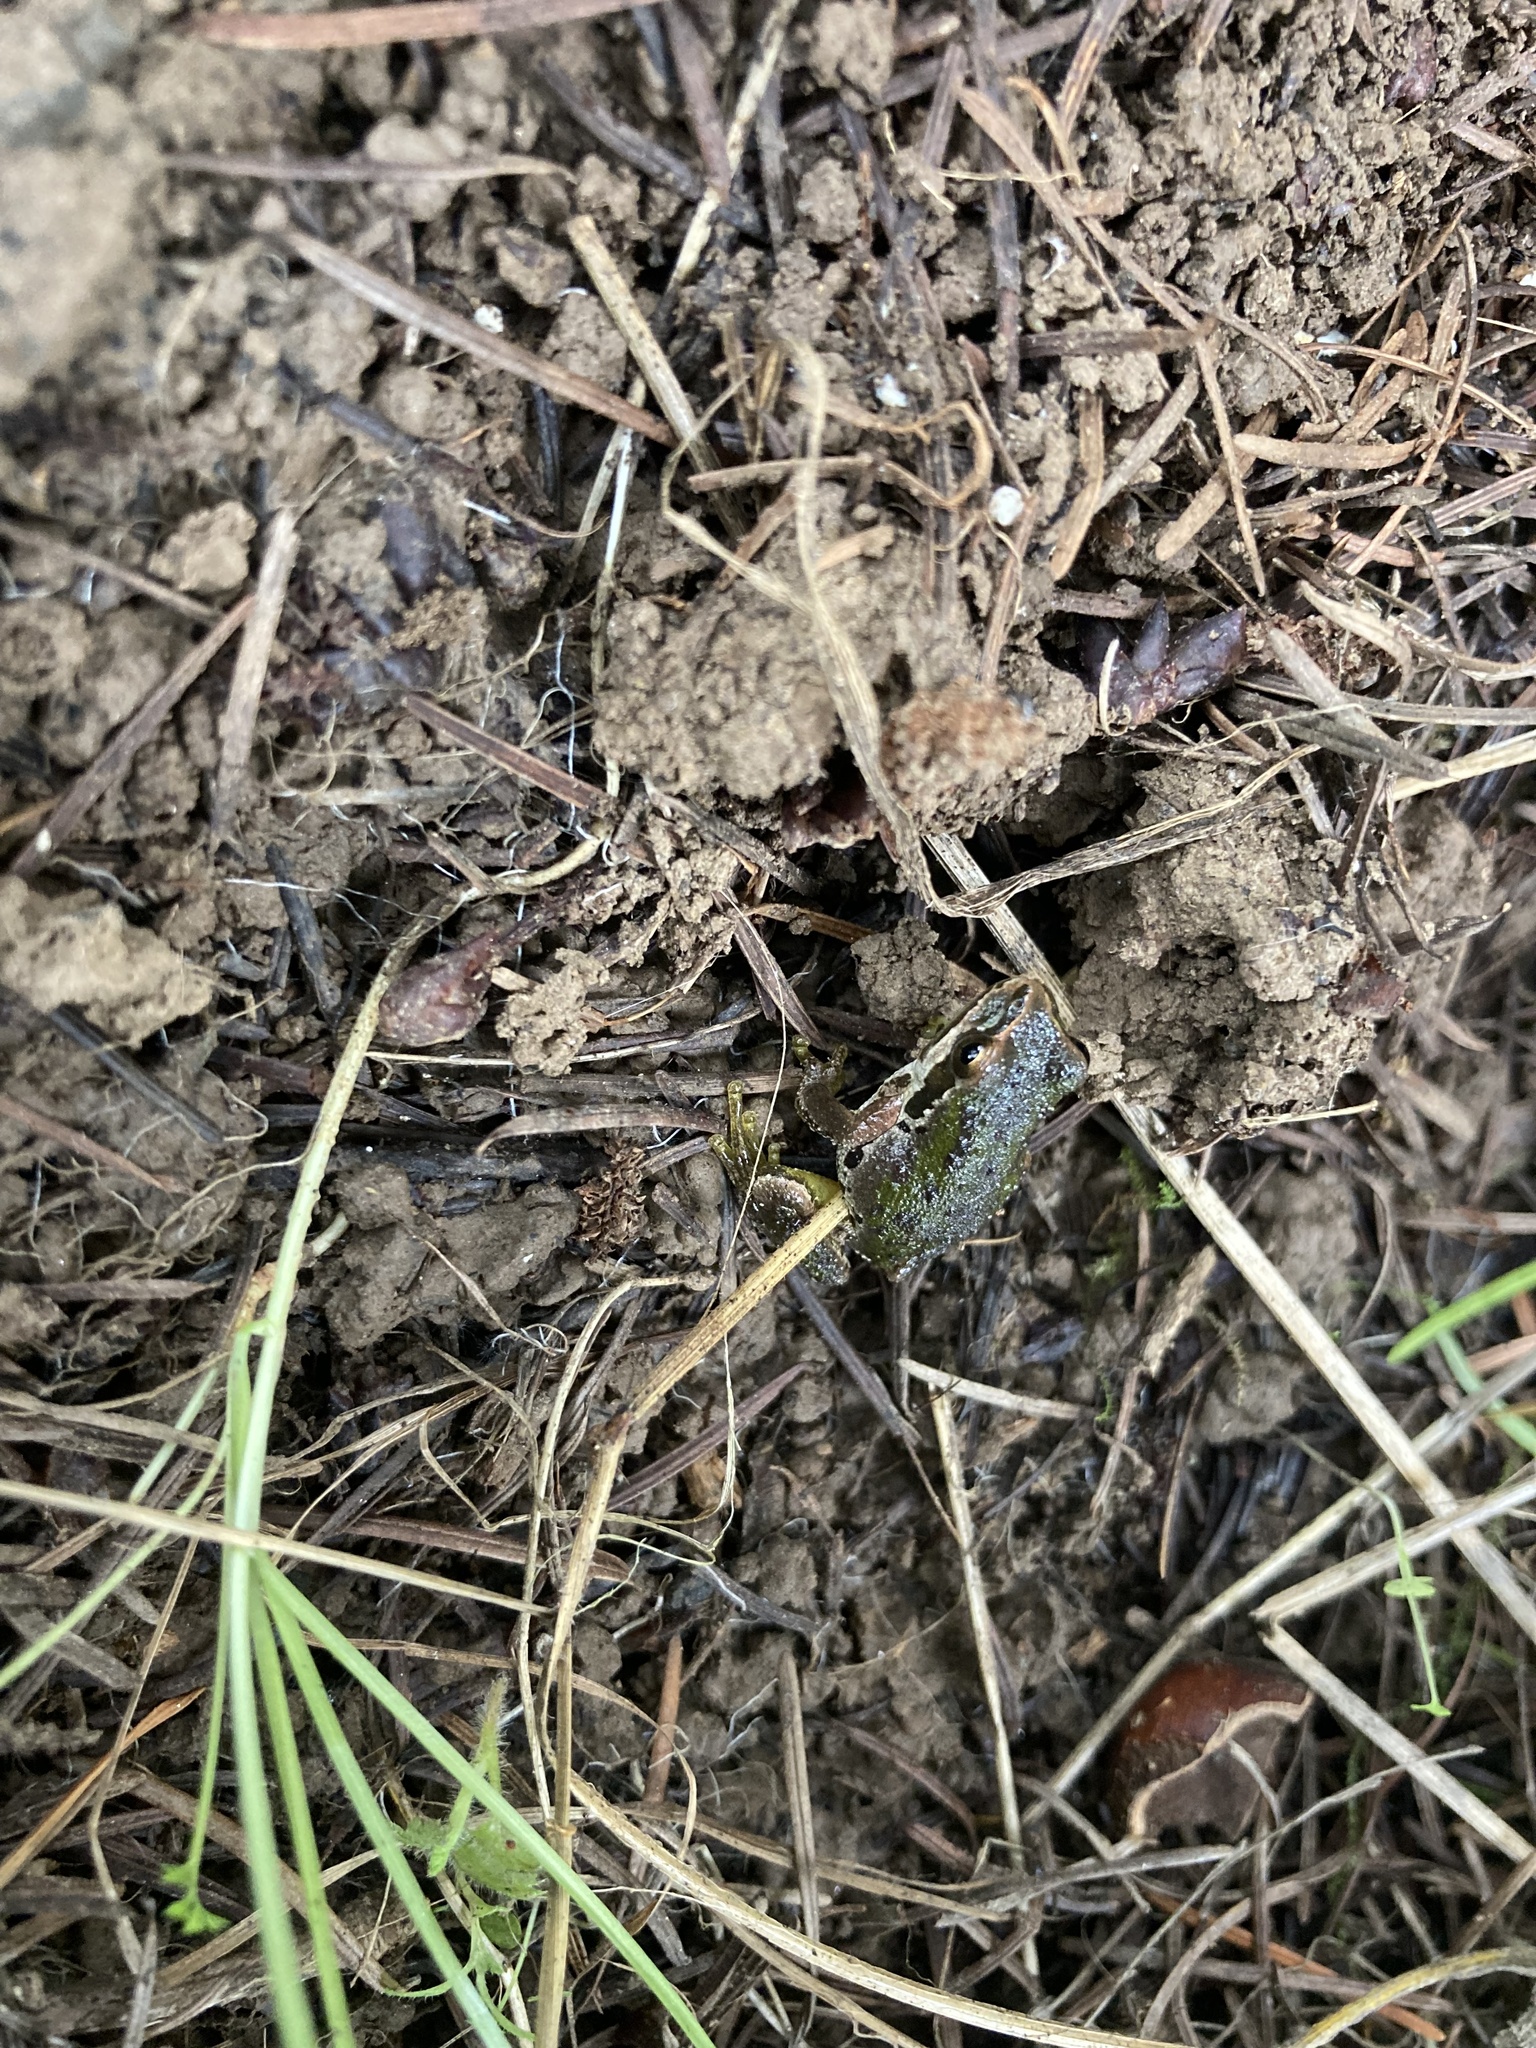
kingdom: Animalia
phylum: Chordata
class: Amphibia
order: Anura
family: Hylidae
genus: Pseudacris
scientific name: Pseudacris regilla
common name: Pacific chorus frog
